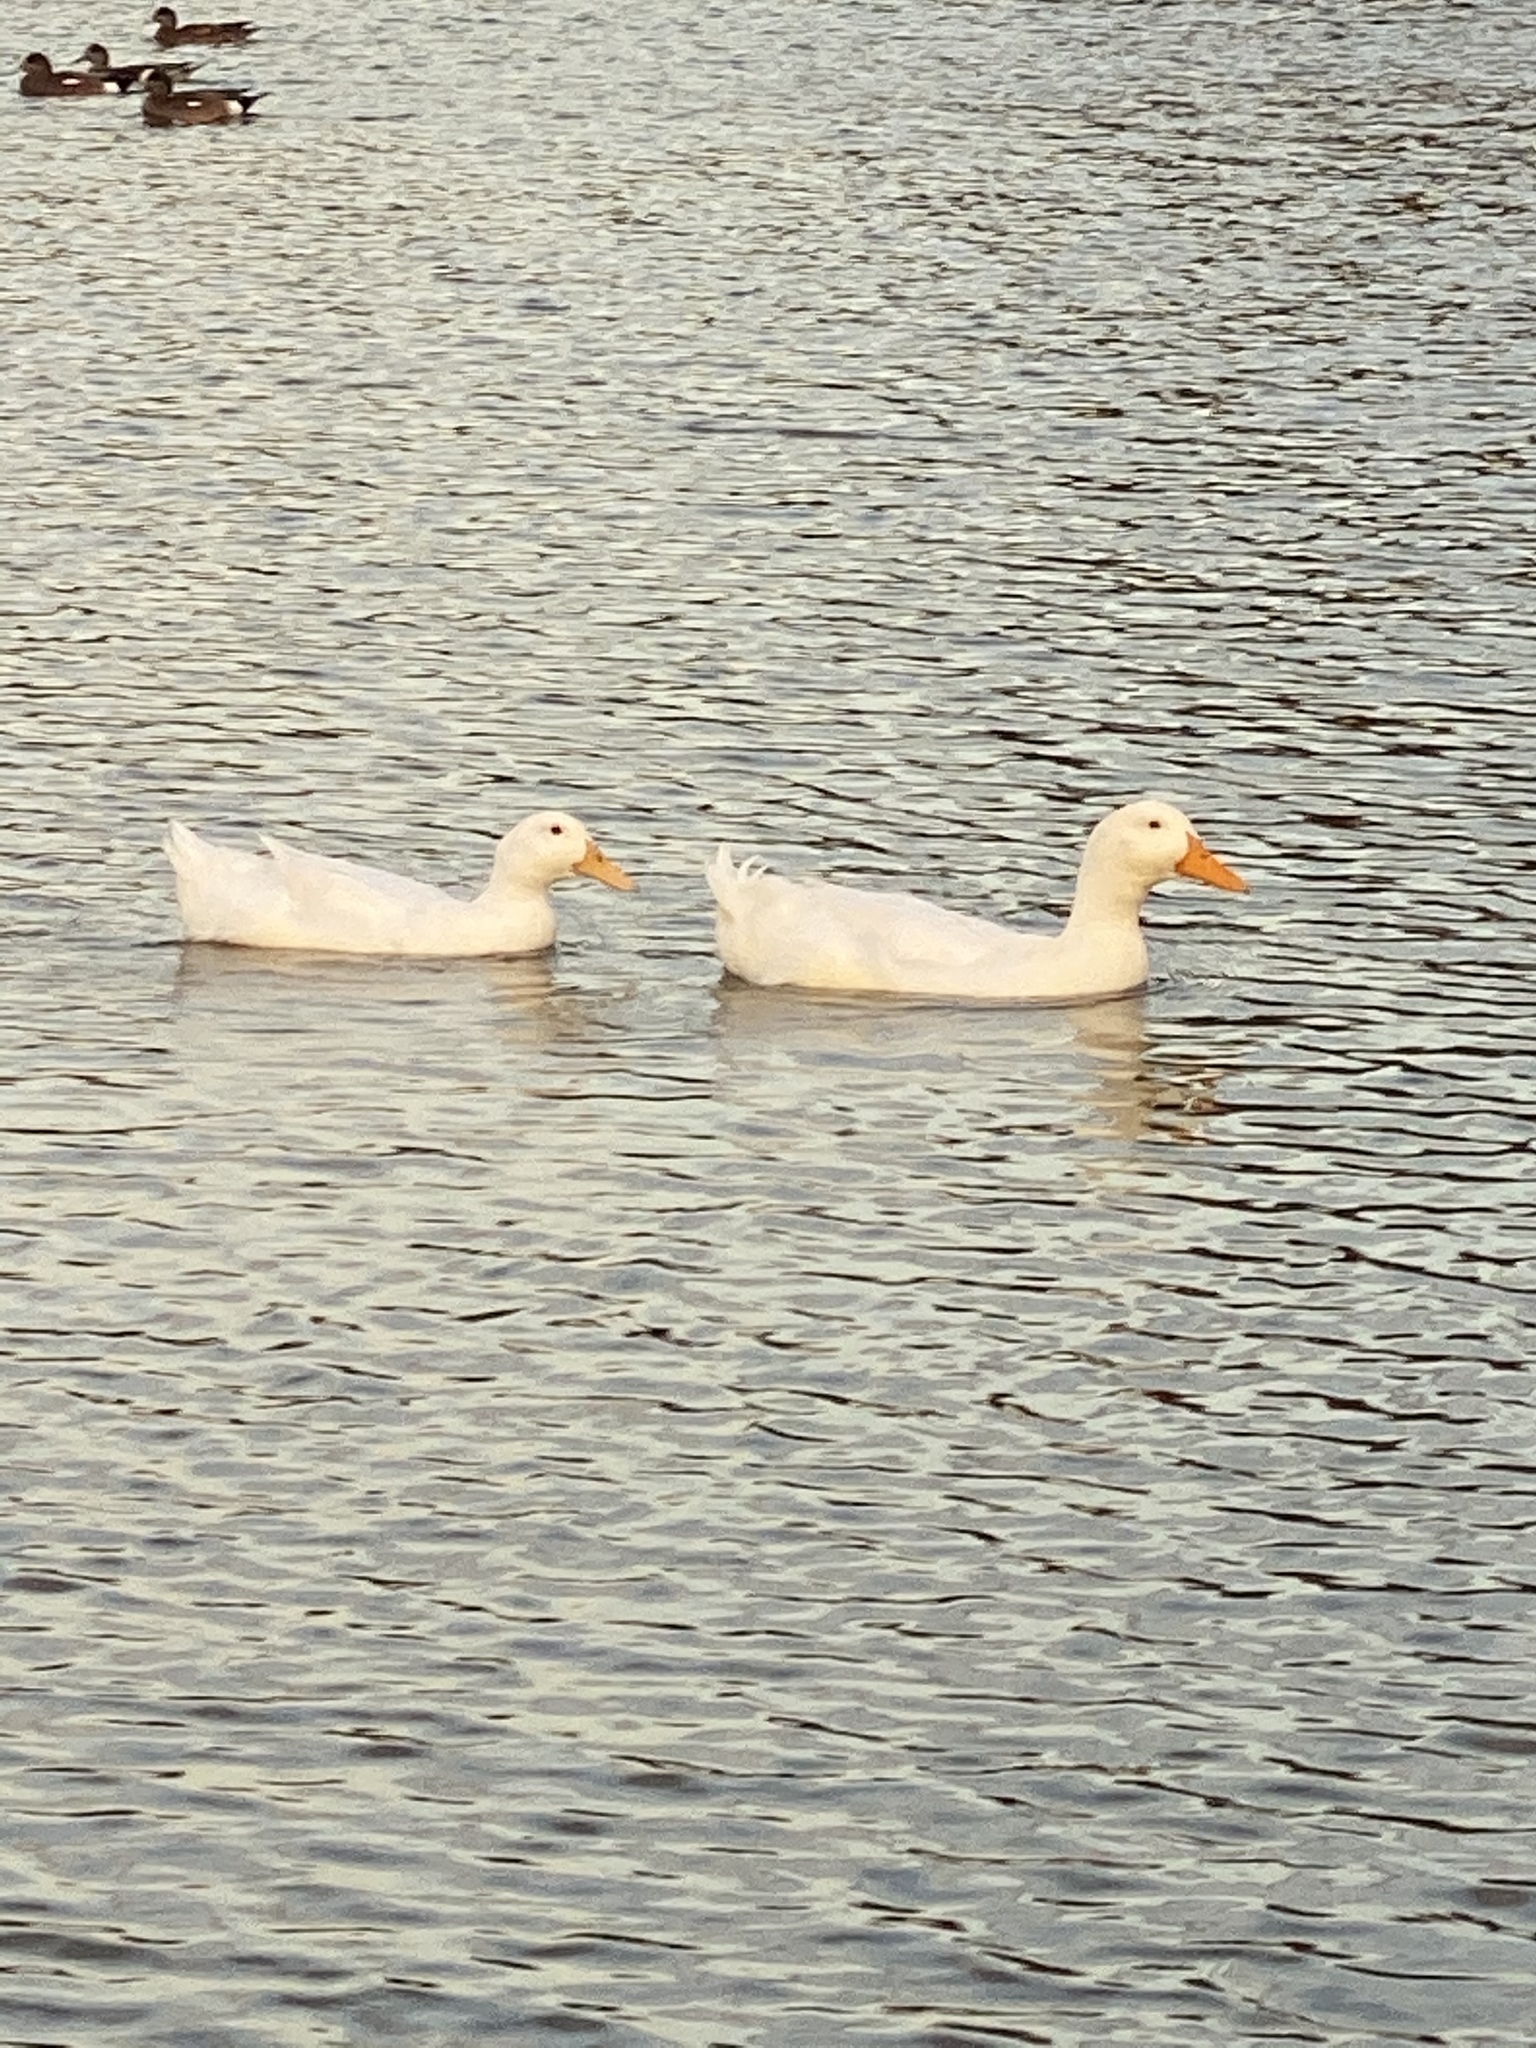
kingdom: Animalia
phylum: Chordata
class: Aves
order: Anseriformes
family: Anatidae
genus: Anas
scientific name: Anas platyrhynchos
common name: Mallard
